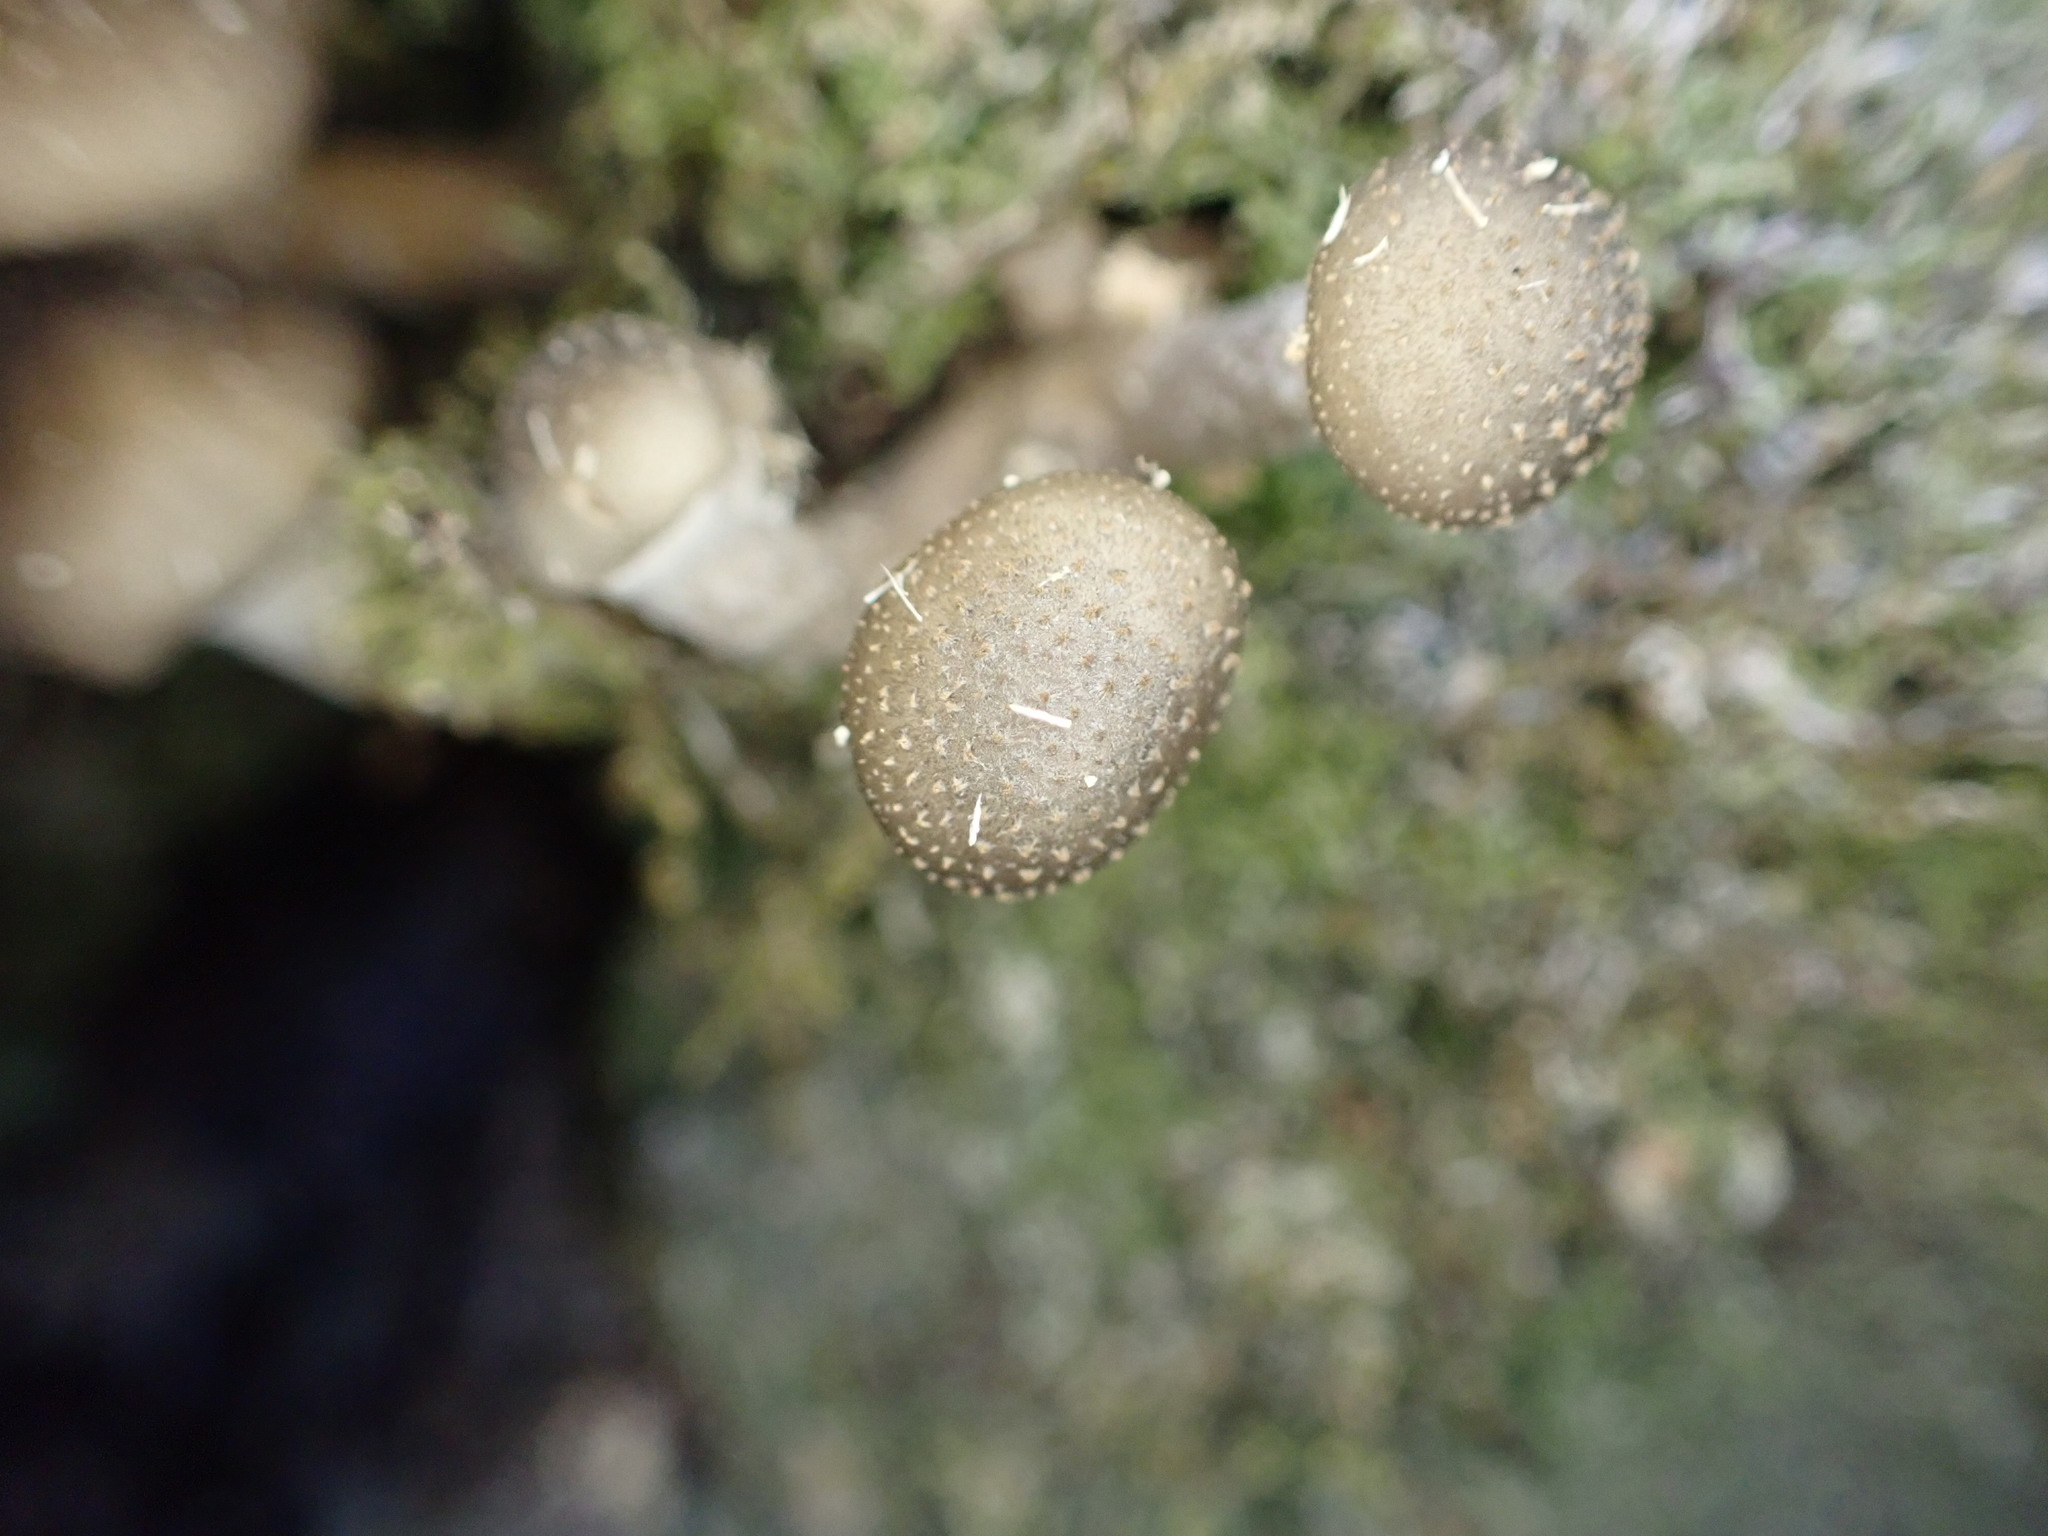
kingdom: Fungi
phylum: Basidiomycota
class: Agaricomycetes
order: Agaricales
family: Physalacriaceae
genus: Armillaria
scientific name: Armillaria novae-zelandiae
